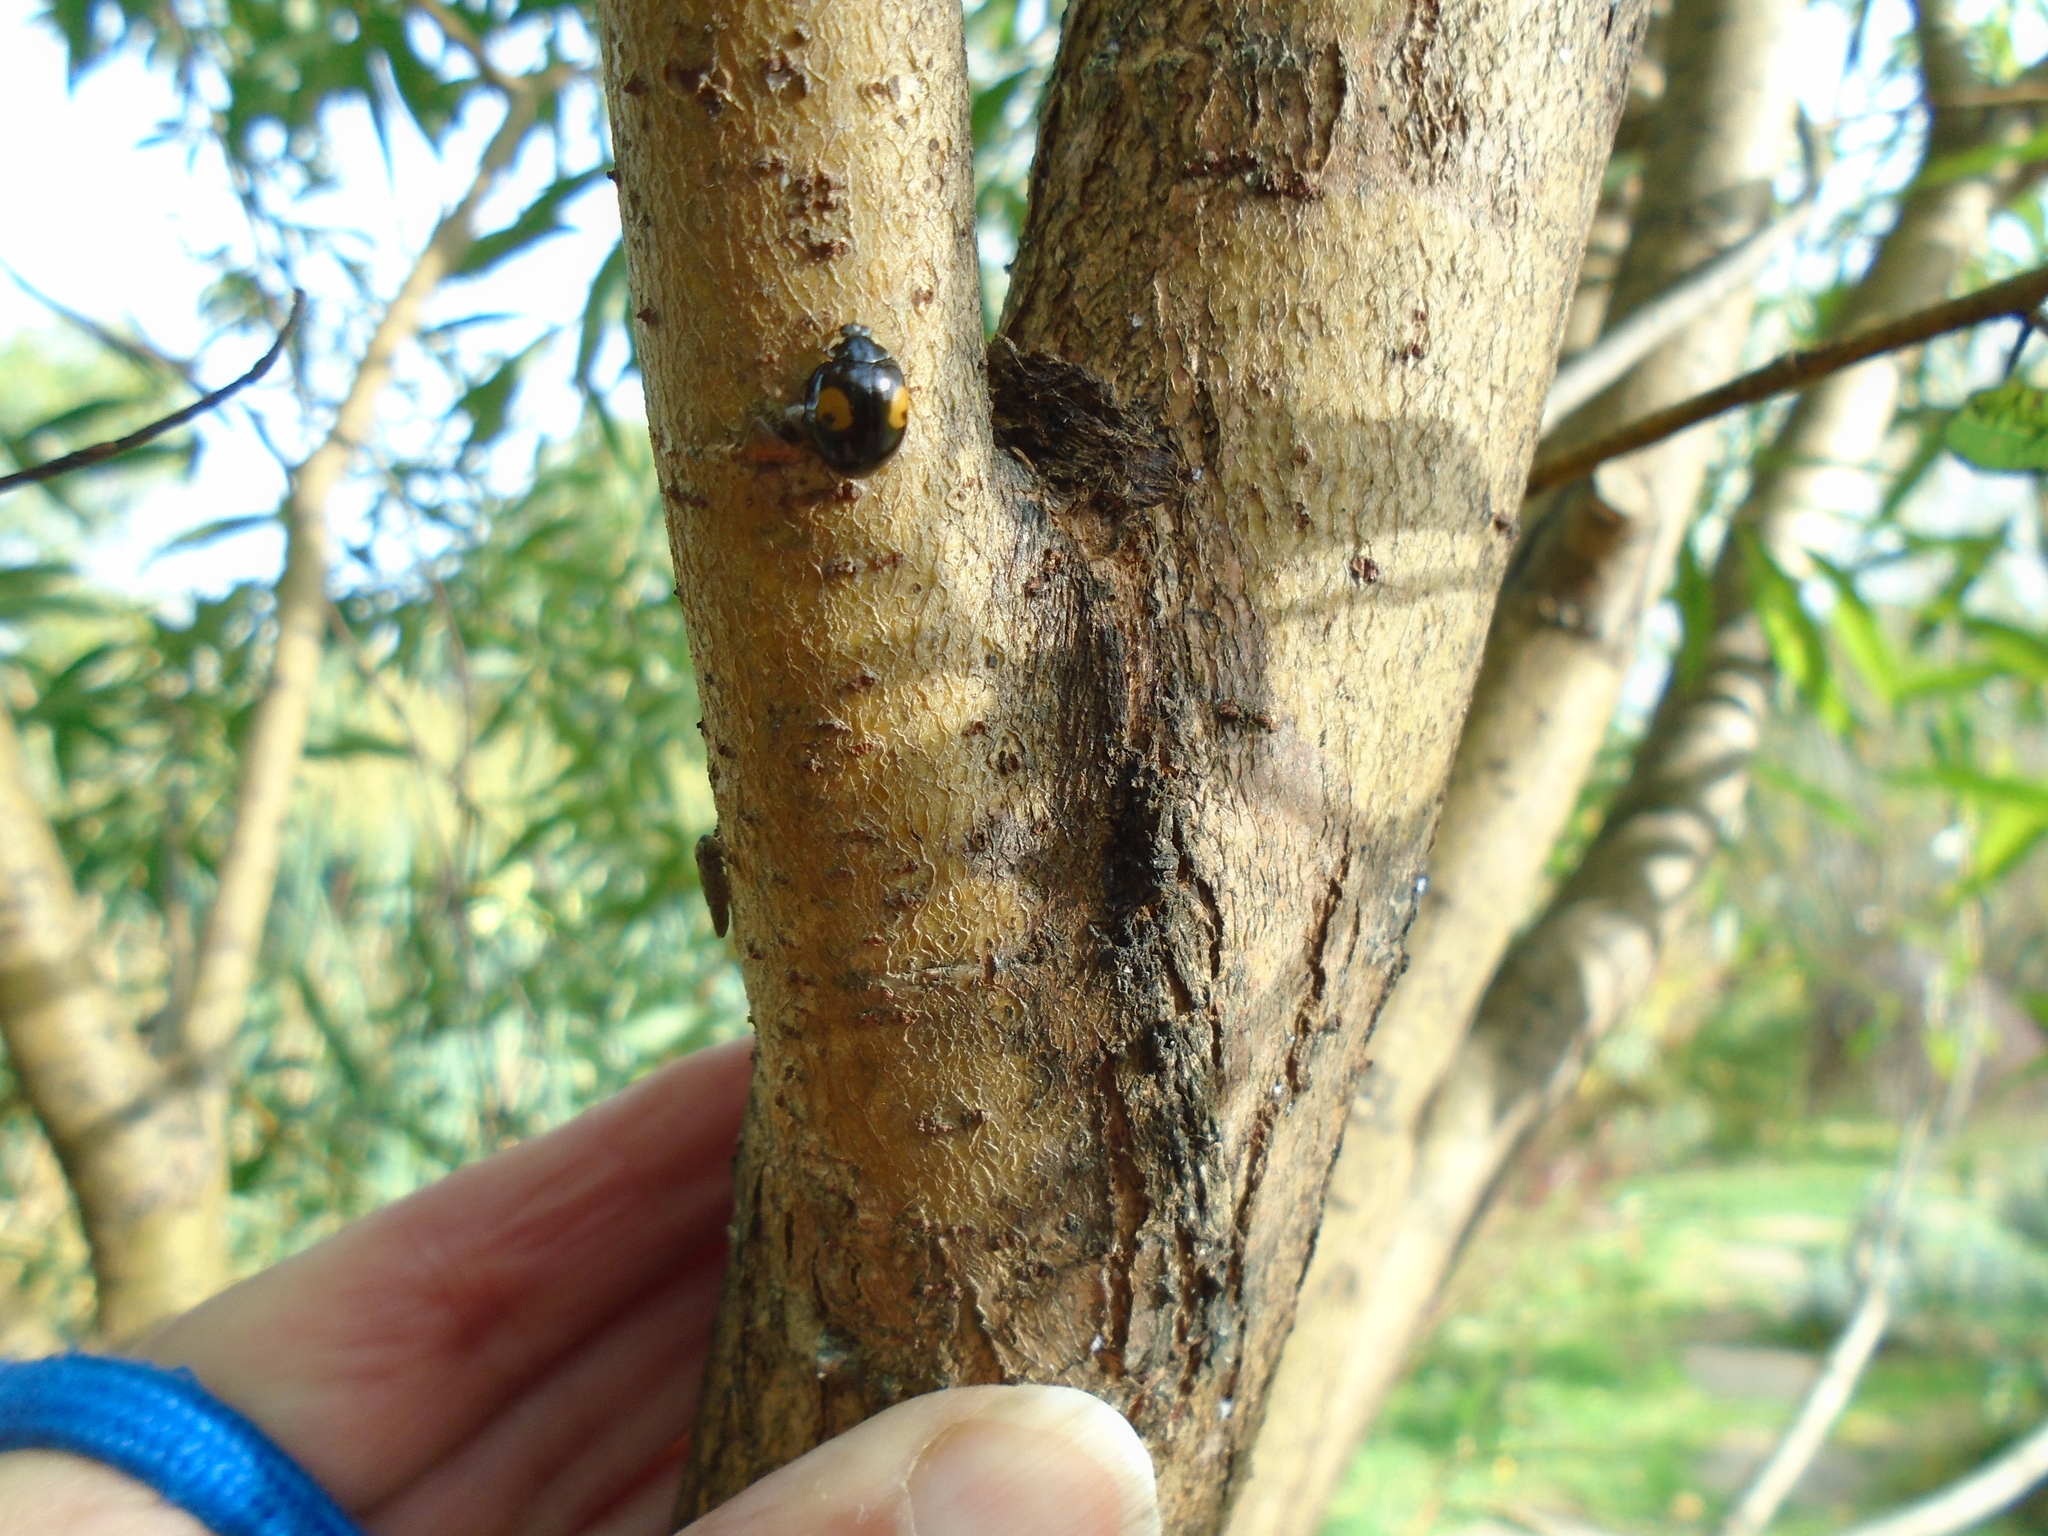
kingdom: Animalia
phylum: Arthropoda
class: Insecta
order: Coleoptera
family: Coccinellidae
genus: Harmonia
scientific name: Harmonia axyridis
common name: Harlequin ladybird
